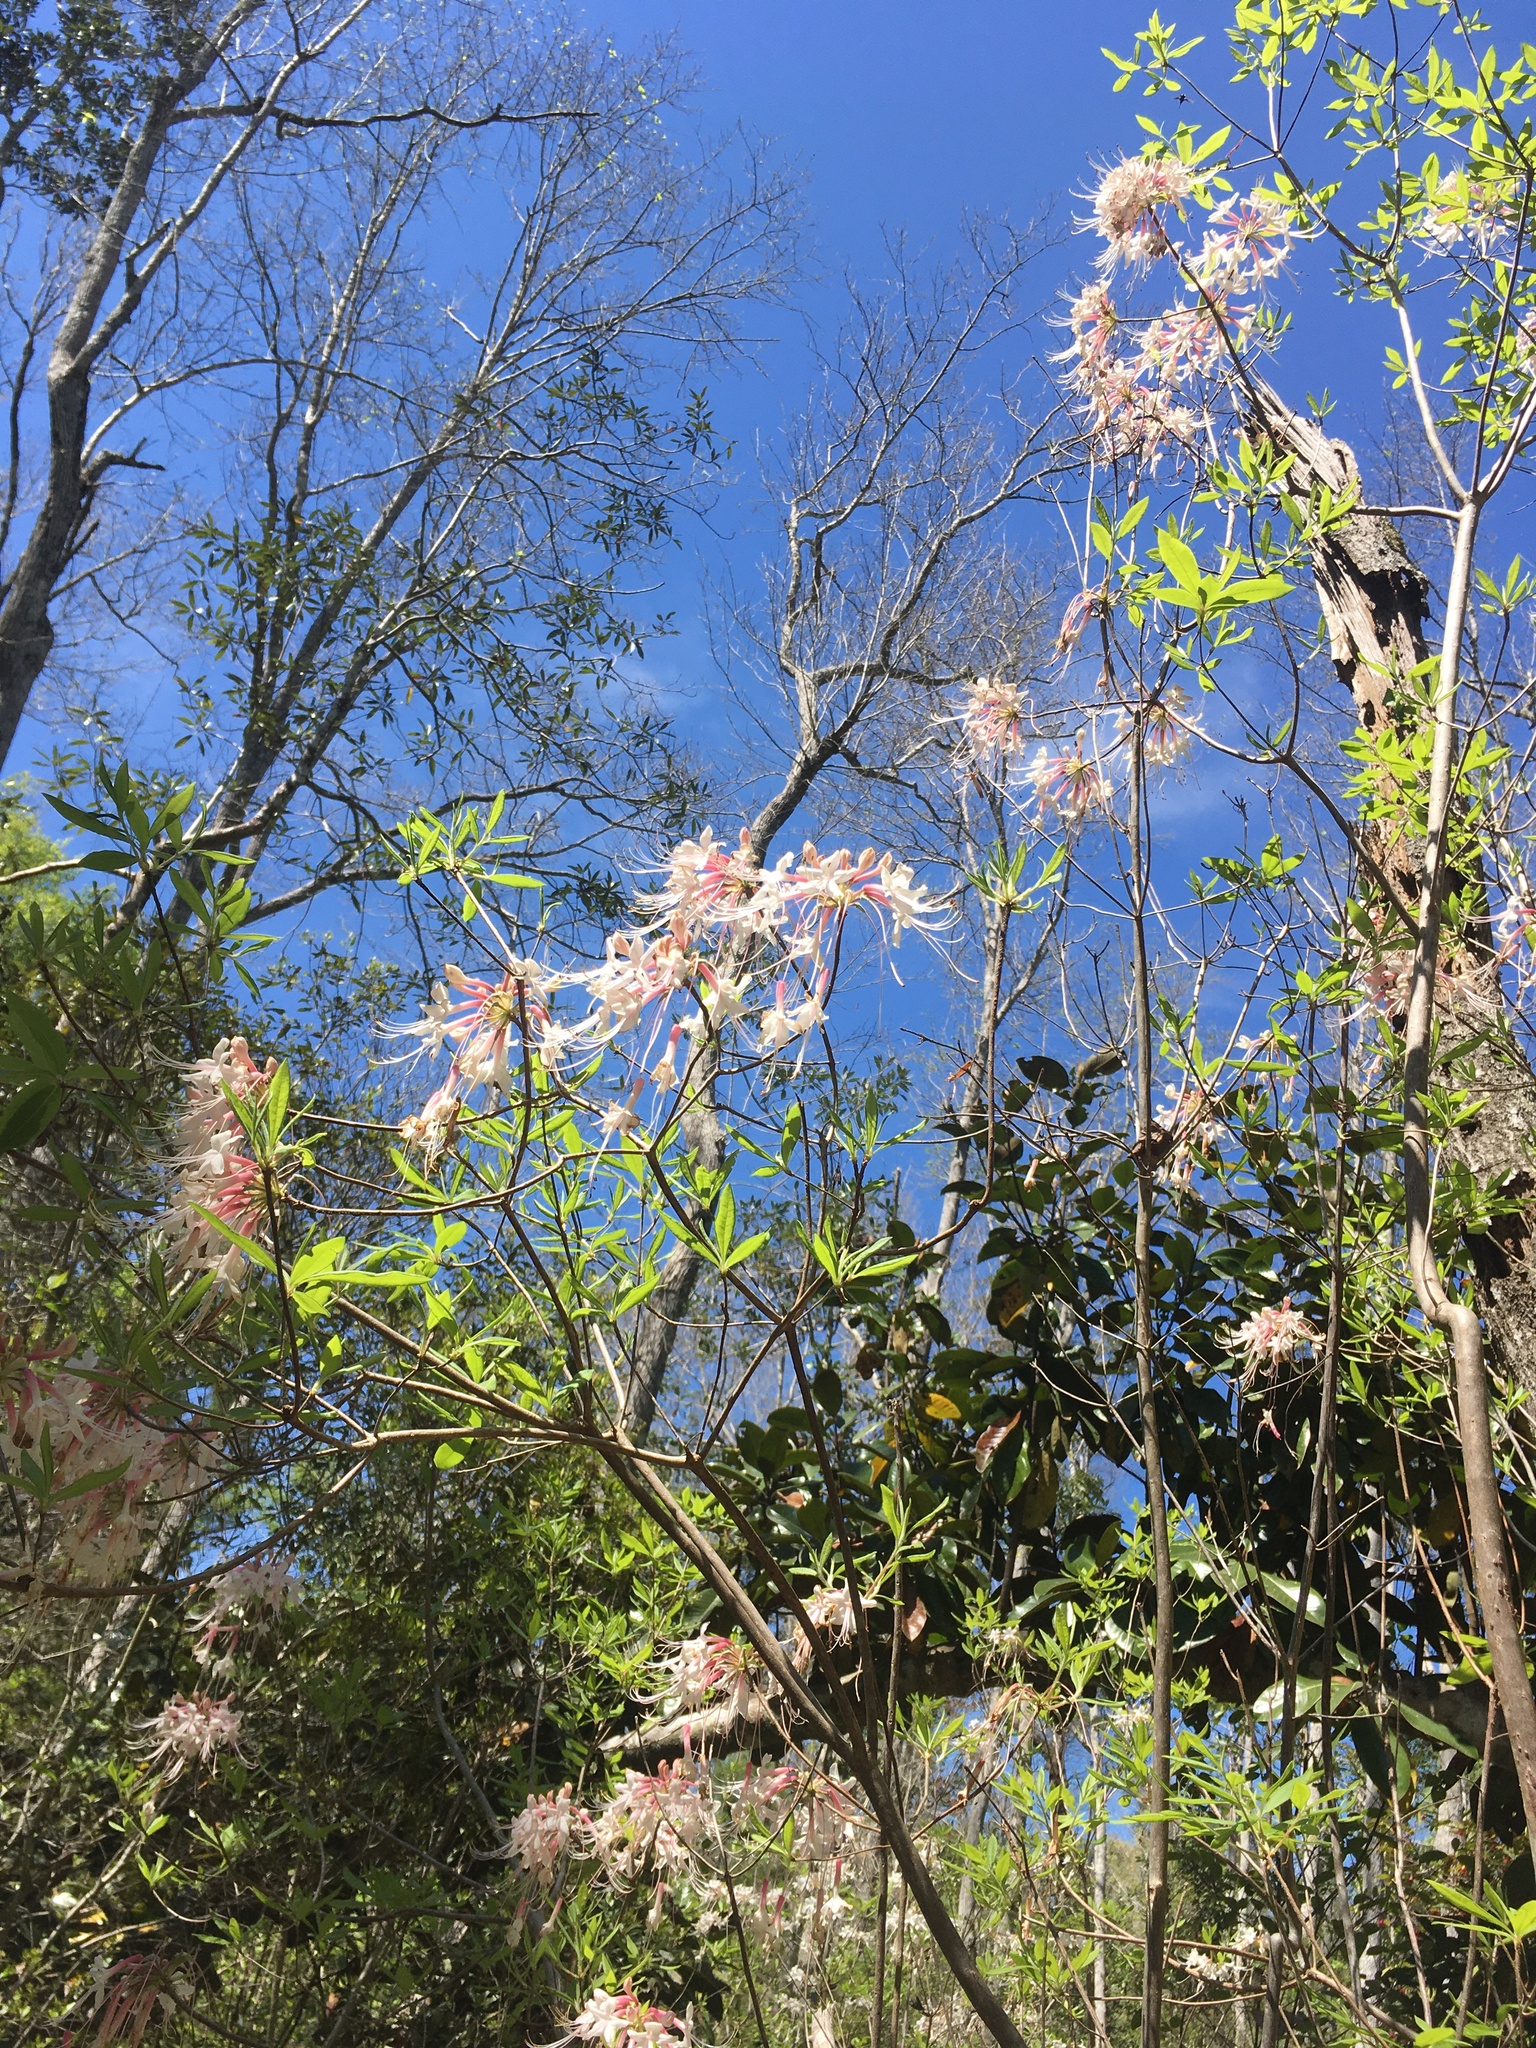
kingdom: Plantae
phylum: Tracheophyta
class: Magnoliopsida
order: Ericales
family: Ericaceae
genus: Rhododendron
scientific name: Rhododendron canescens
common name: Mountain azalea
